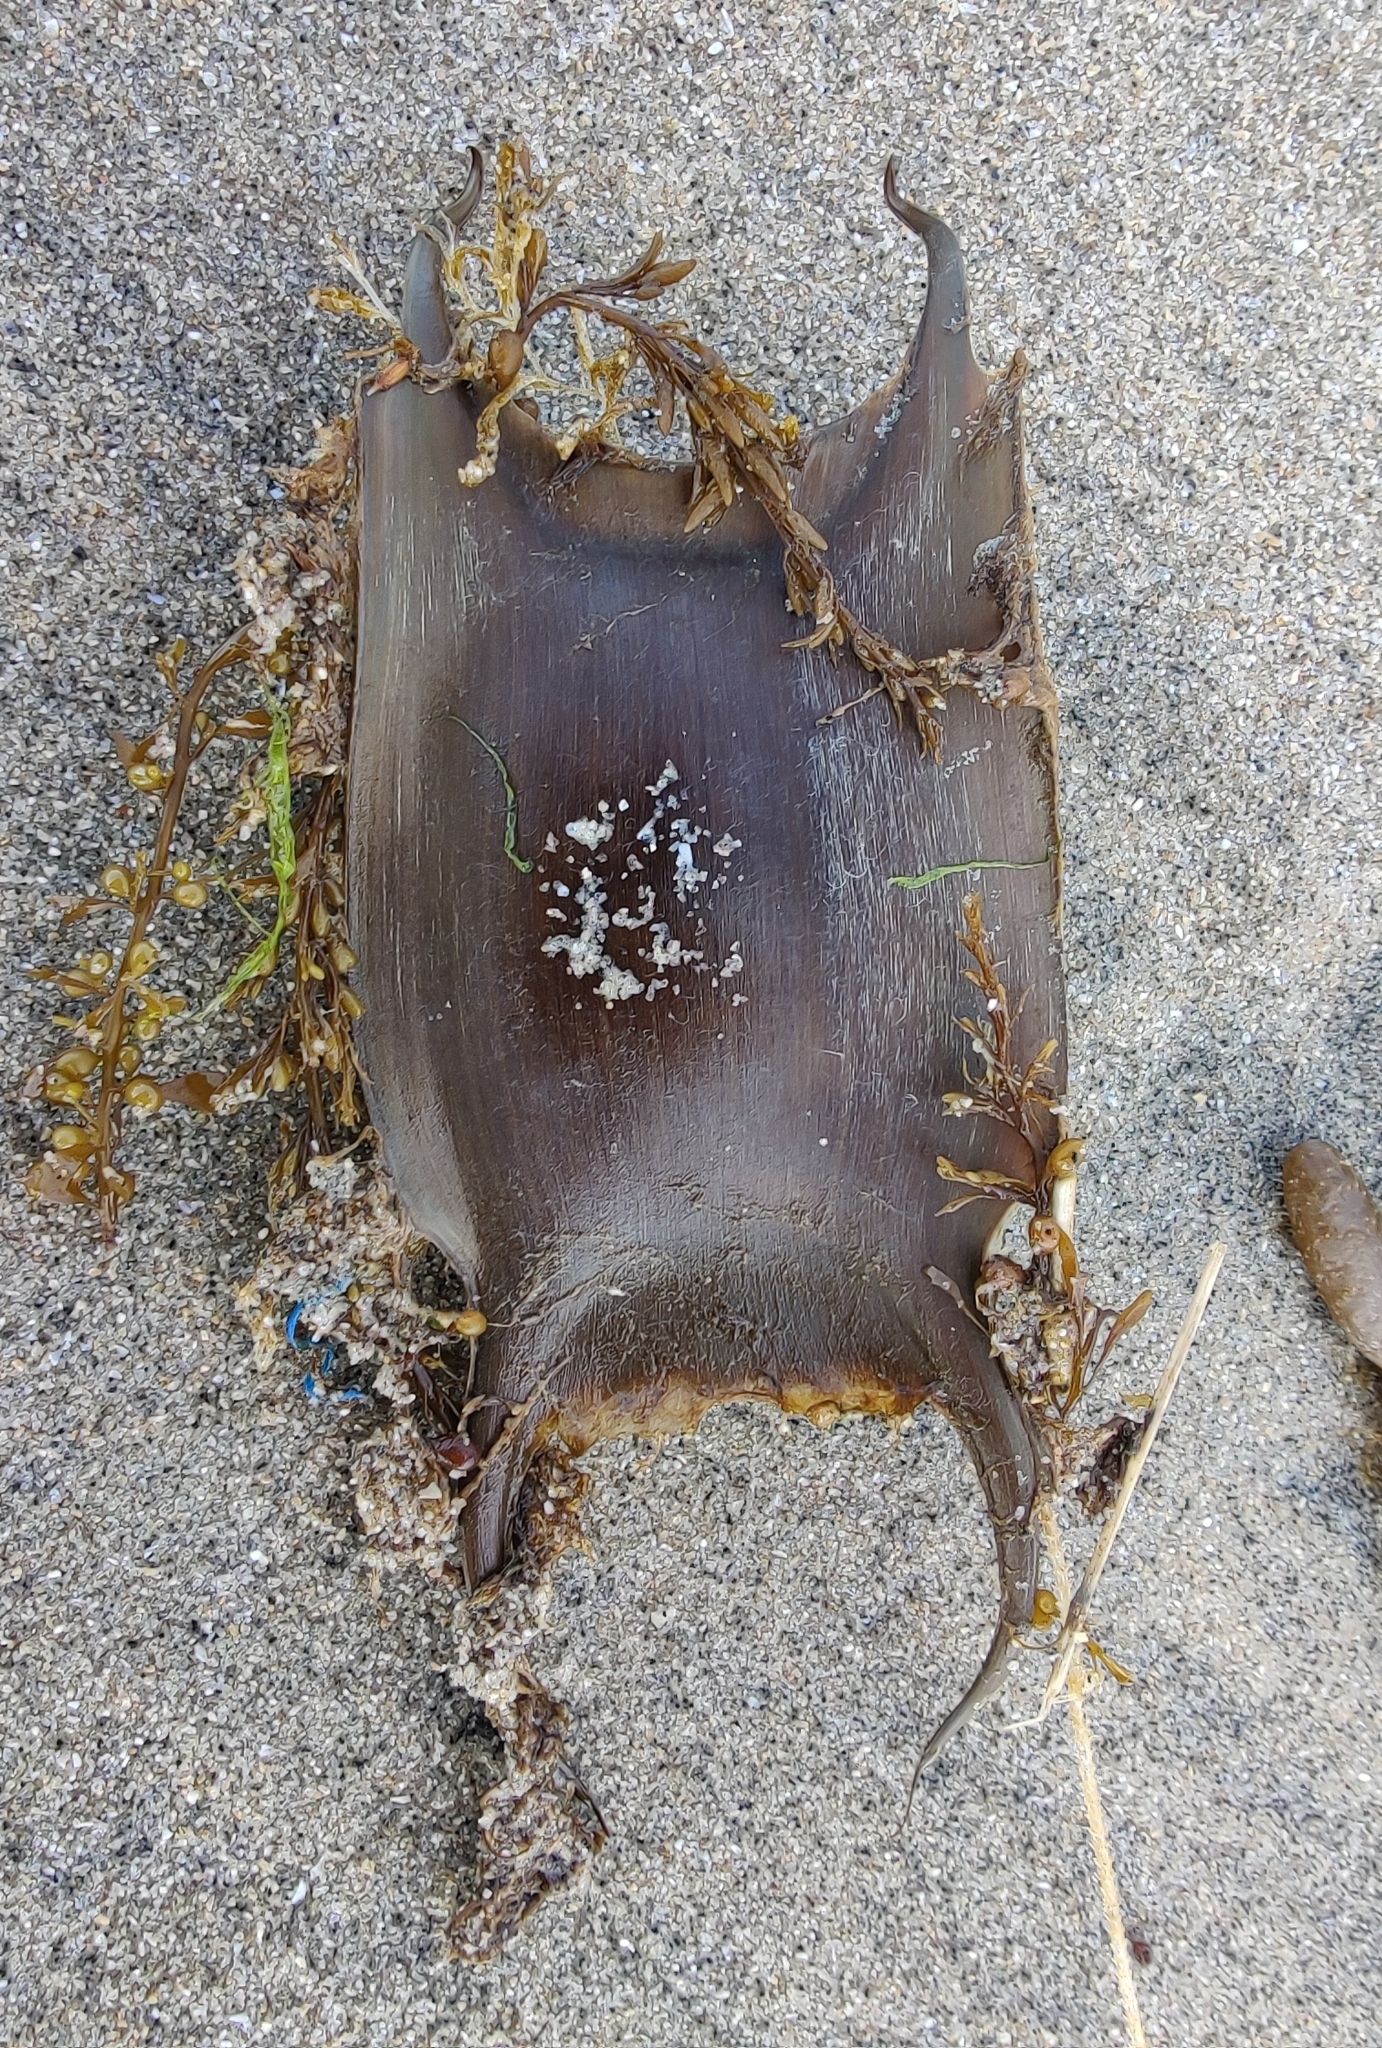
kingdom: Animalia
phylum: Chordata
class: Elasmobranchii
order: Rajiformes
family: Rajidae
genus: Raja
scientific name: Raja clavata
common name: Thornback ray
